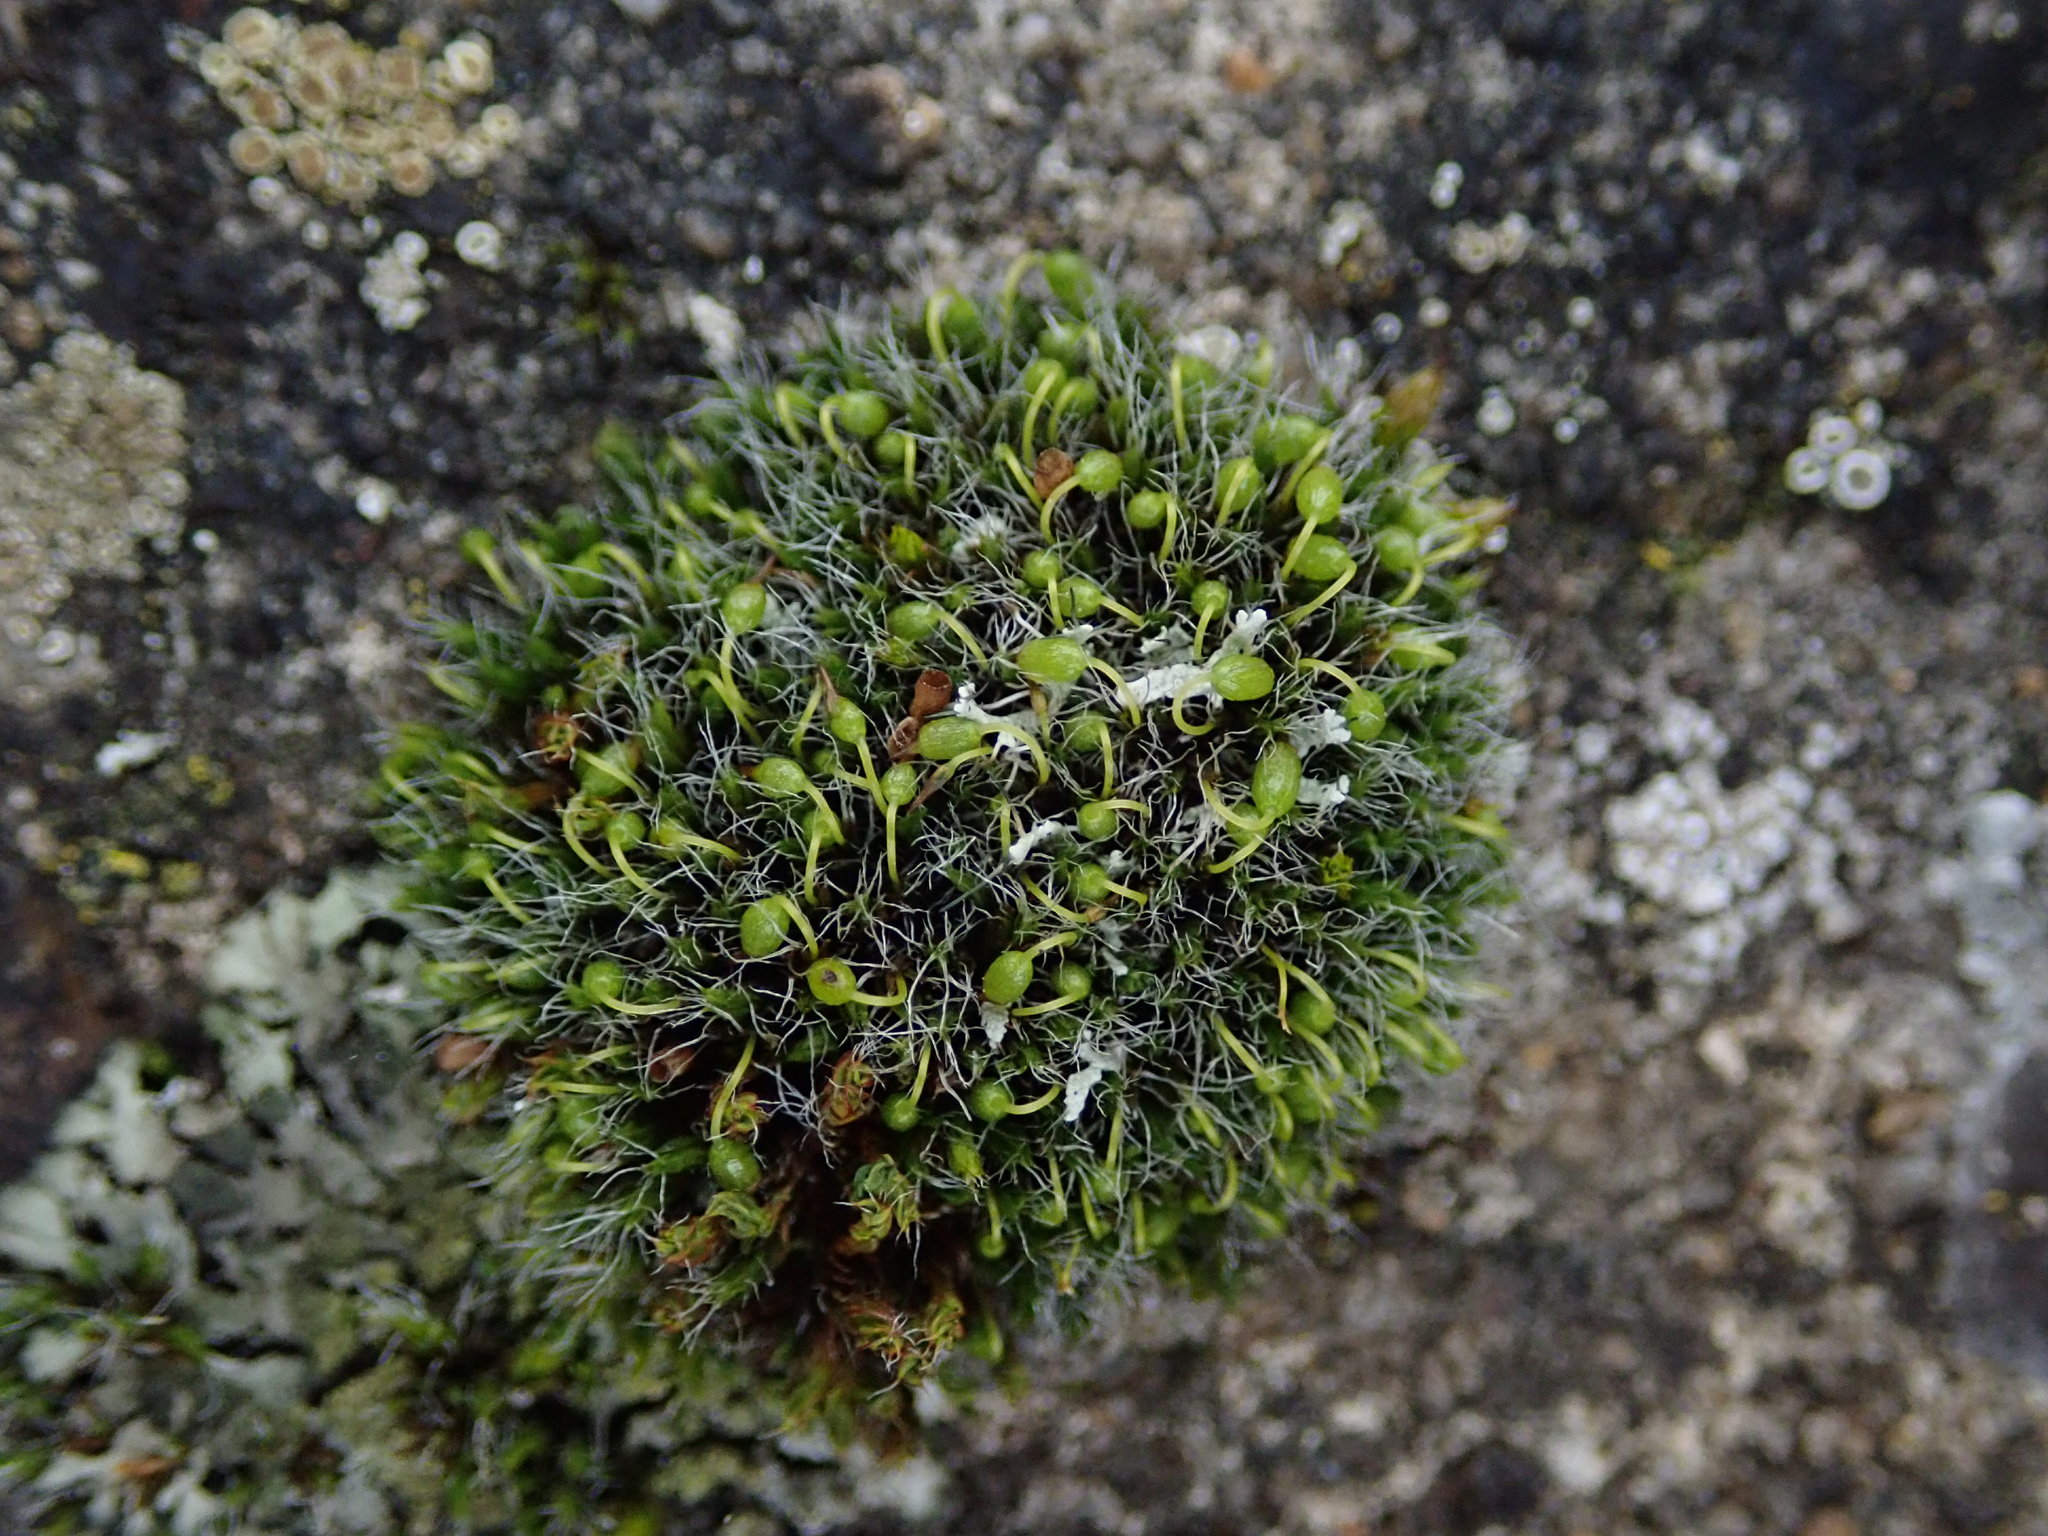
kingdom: Plantae
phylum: Bryophyta
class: Bryopsida
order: Grimmiales
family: Grimmiaceae
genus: Grimmia
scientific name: Grimmia pulvinata
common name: Grey-cushioned grimmia
